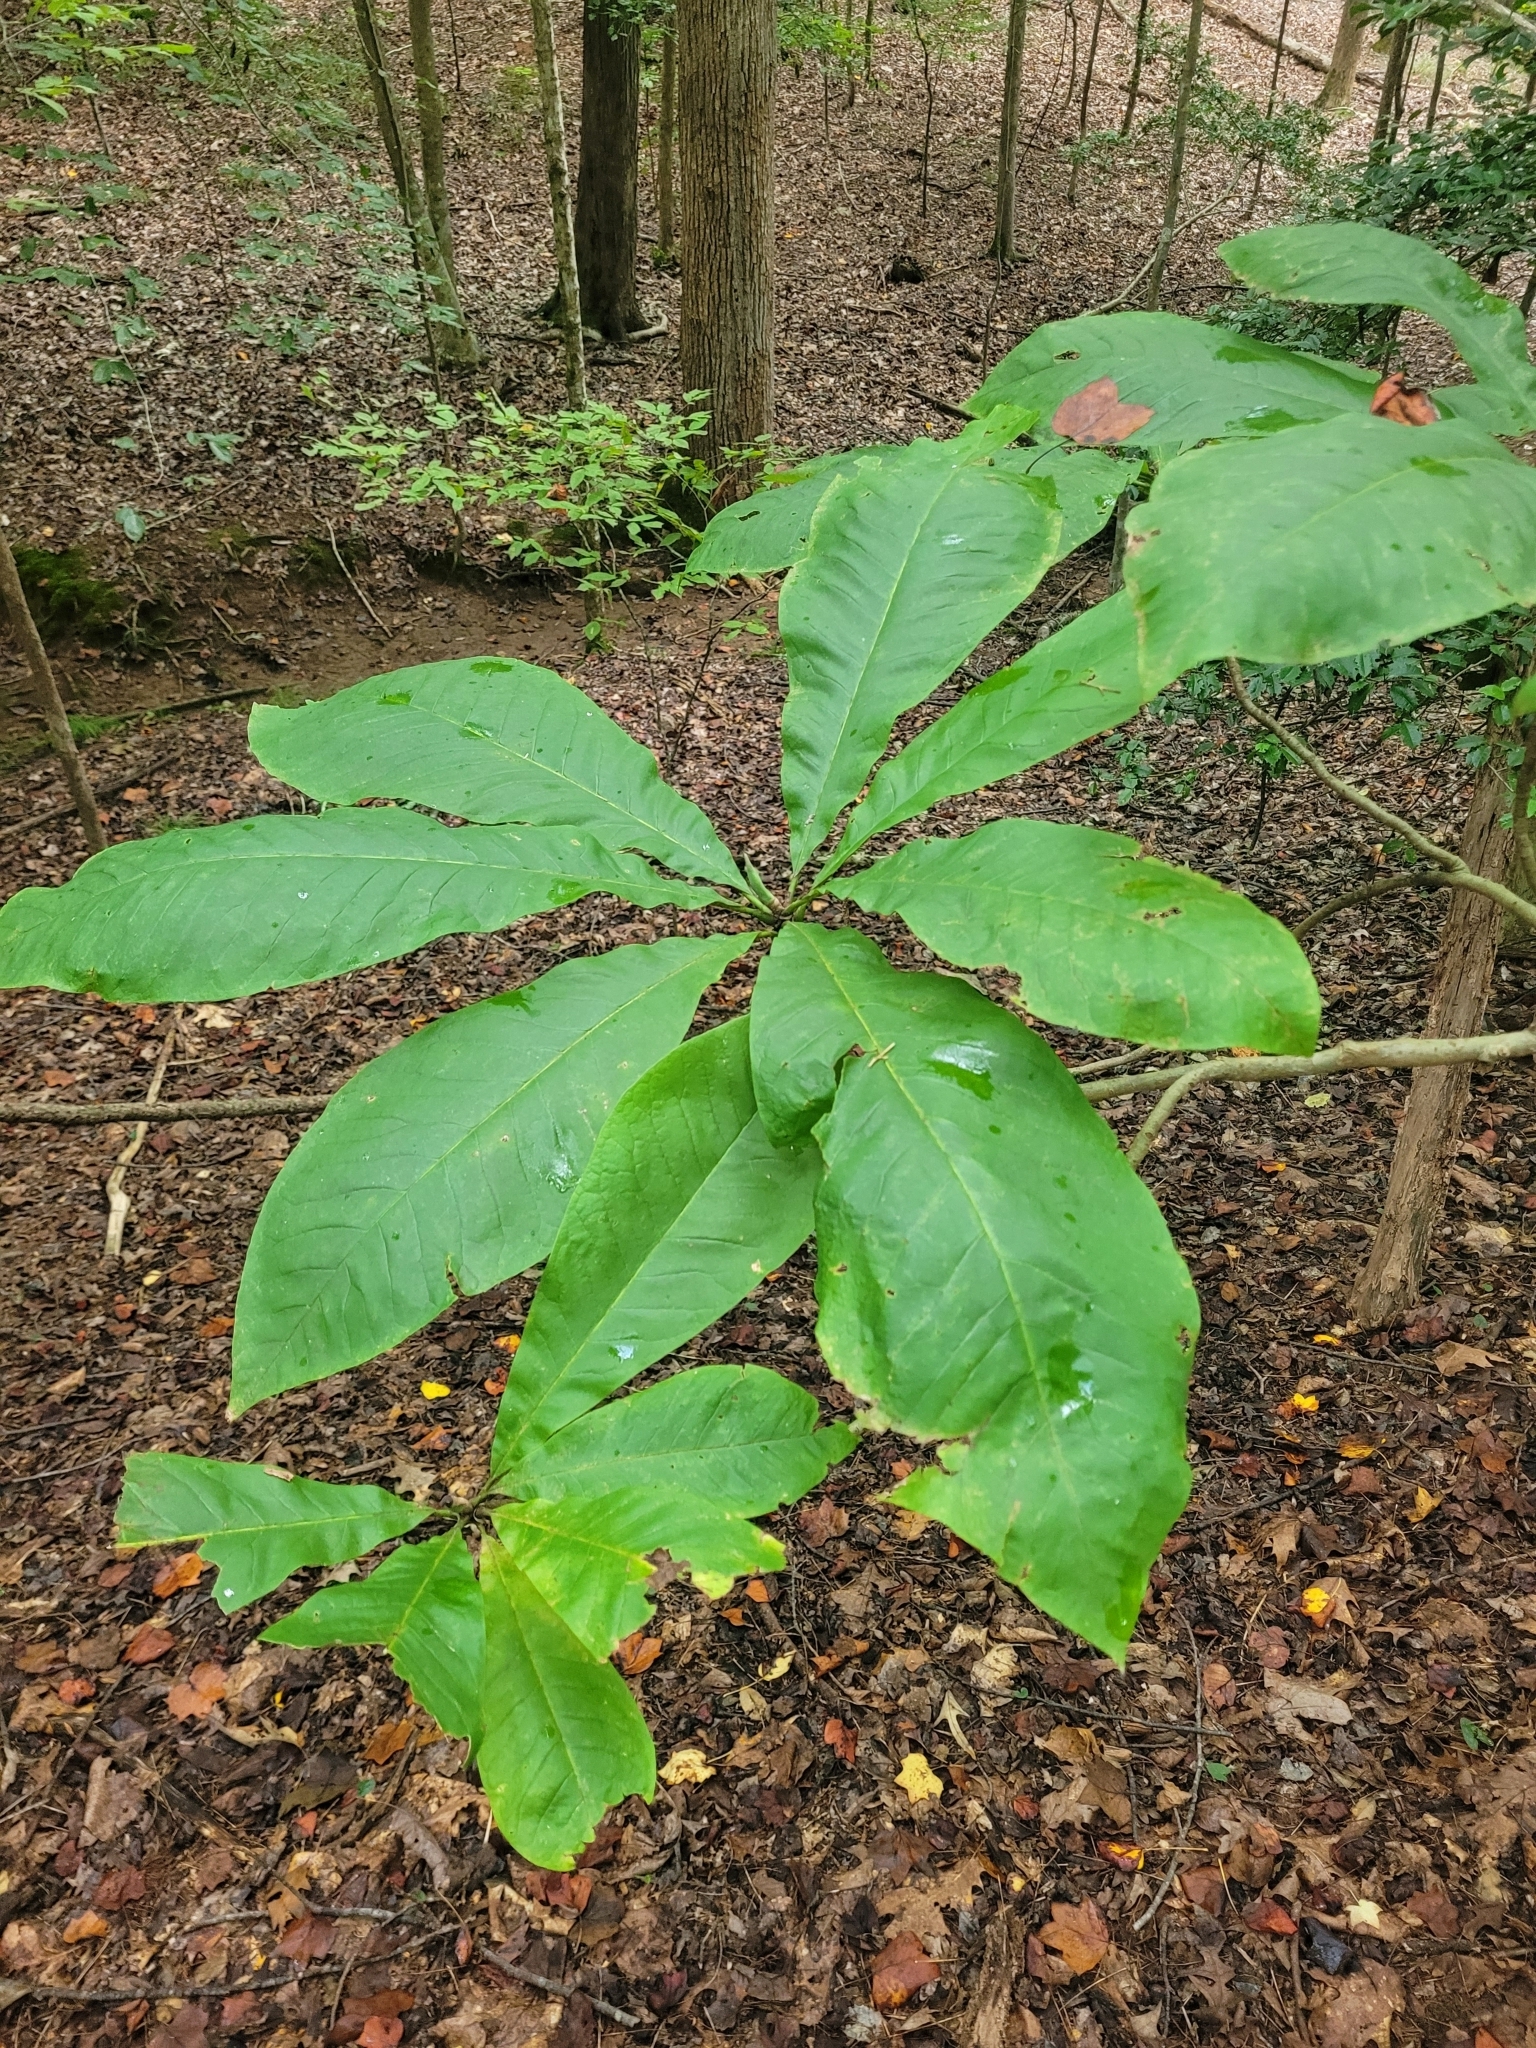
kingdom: Plantae
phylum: Tracheophyta
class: Magnoliopsida
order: Magnoliales
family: Magnoliaceae
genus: Magnolia
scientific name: Magnolia tripetala
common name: Umbrella magnolia
